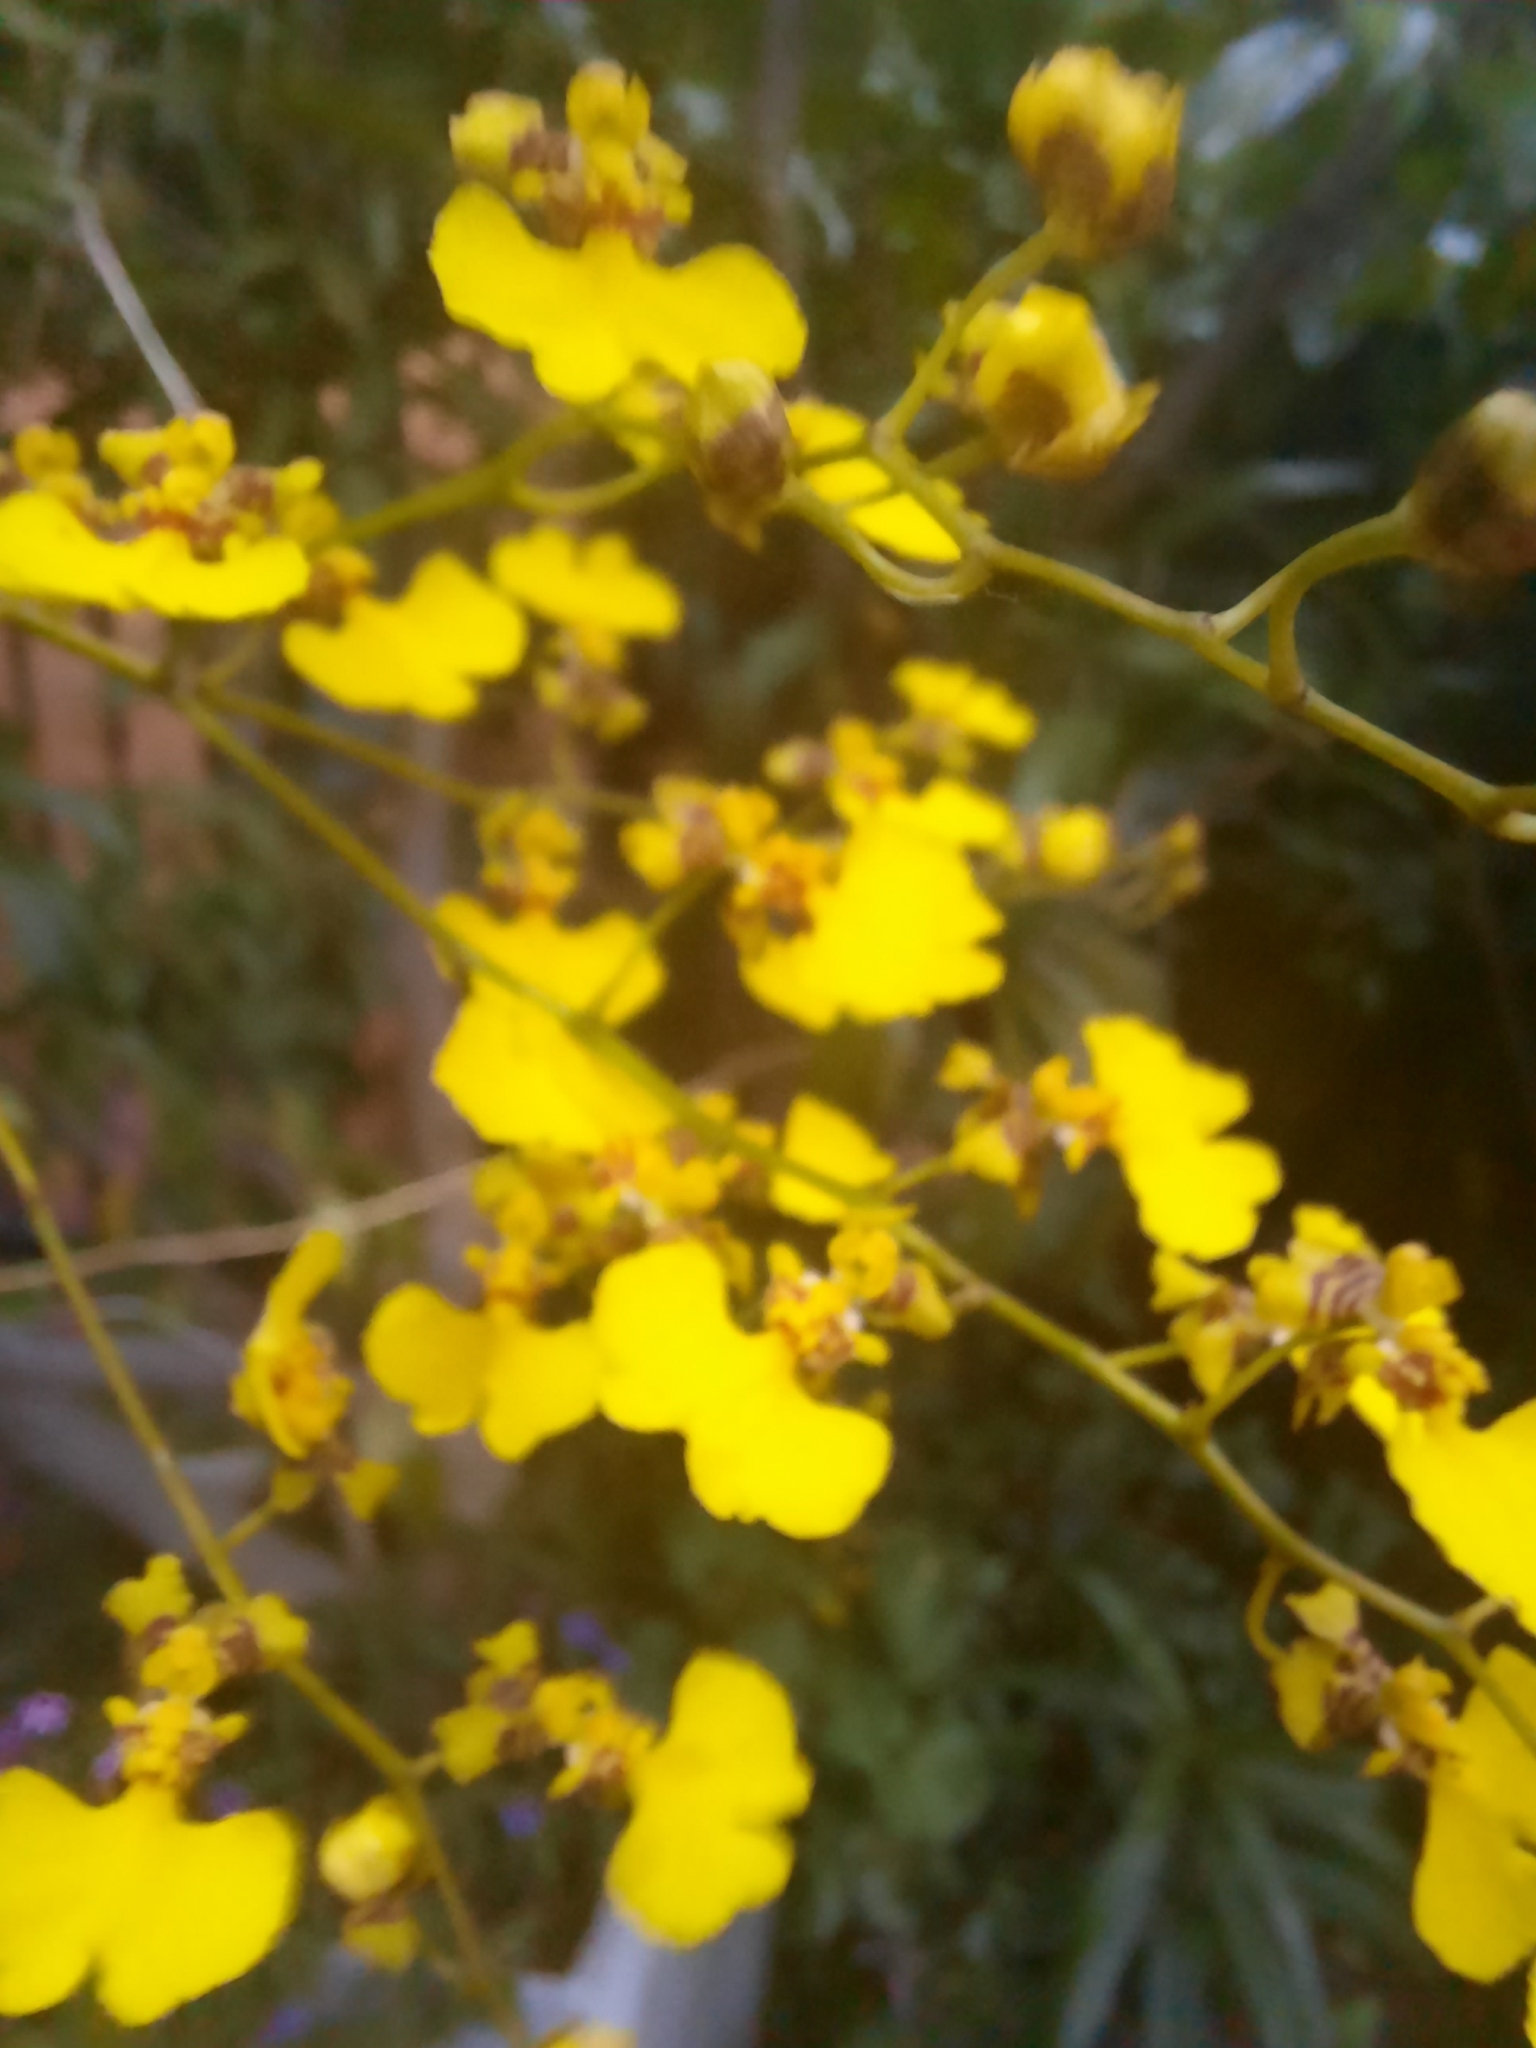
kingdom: Plantae
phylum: Tracheophyta
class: Liliopsida
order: Asparagales
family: Orchidaceae
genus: Gomesa
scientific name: Gomesa bifolia
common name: Dancing ladies
